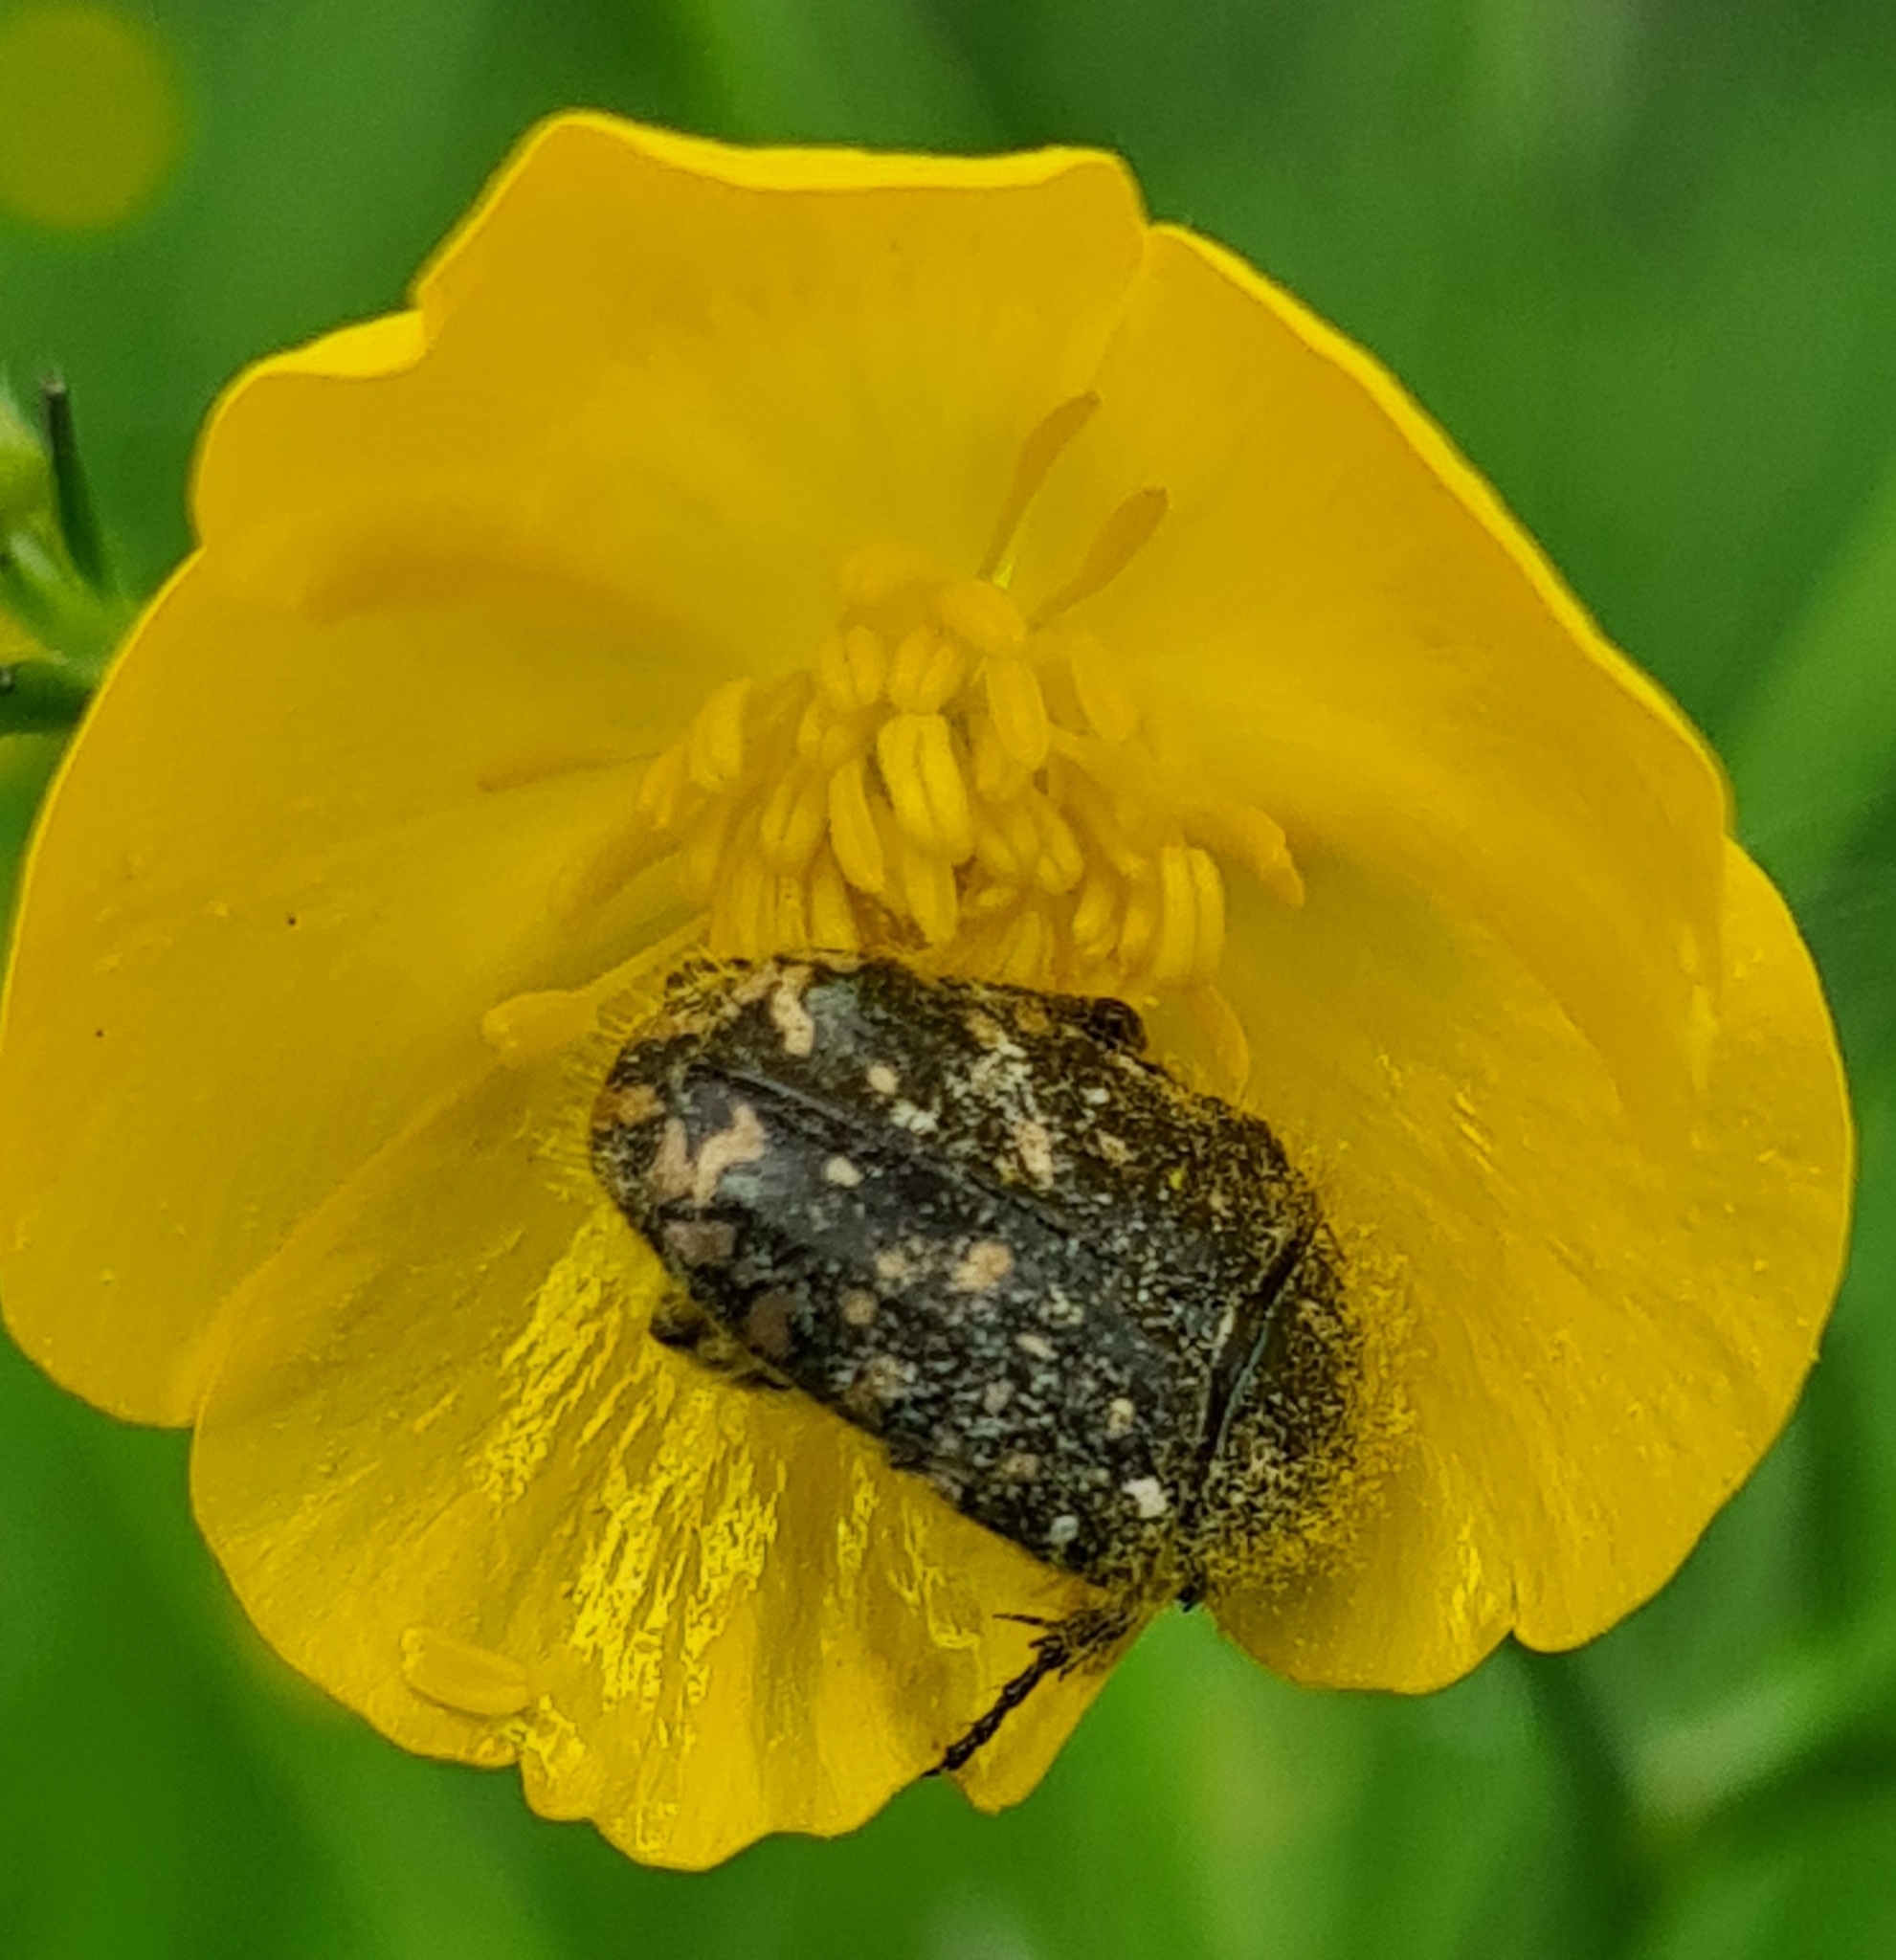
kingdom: Animalia
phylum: Arthropoda
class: Insecta
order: Coleoptera
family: Scarabaeidae
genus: Oxythyrea
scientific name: Oxythyrea funesta
